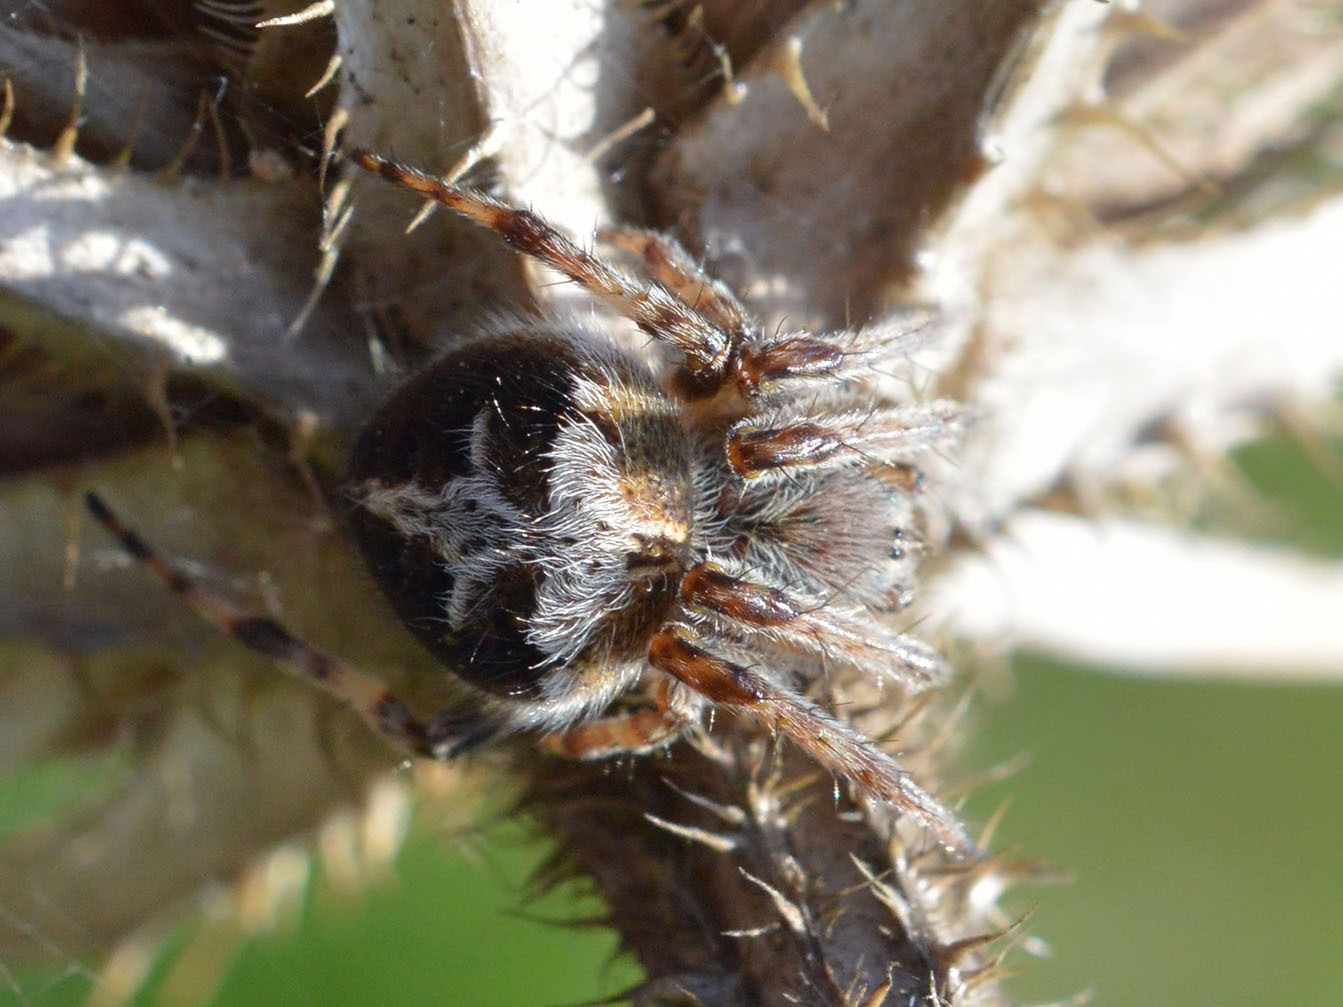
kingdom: Animalia
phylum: Arthropoda
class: Arachnida
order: Araneae
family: Araneidae
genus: Agalenatea
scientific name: Agalenatea redii
